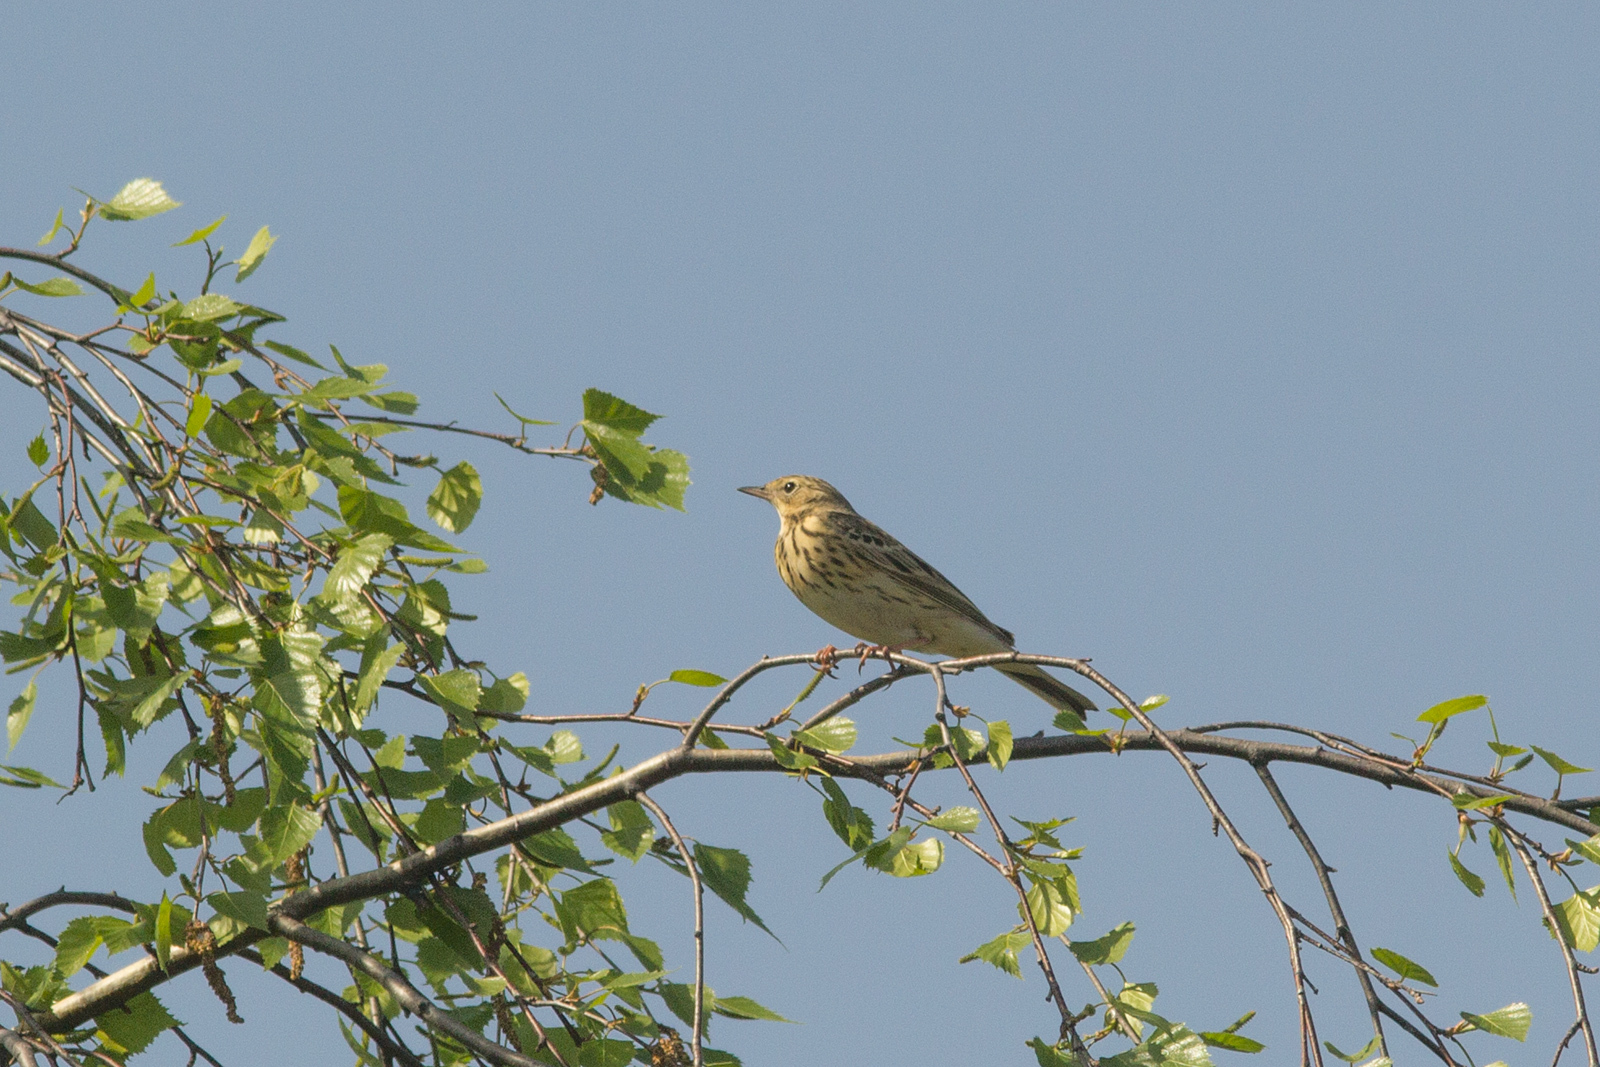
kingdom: Animalia
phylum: Chordata
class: Aves
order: Passeriformes
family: Motacillidae
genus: Anthus
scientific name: Anthus trivialis
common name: Tree pipit
